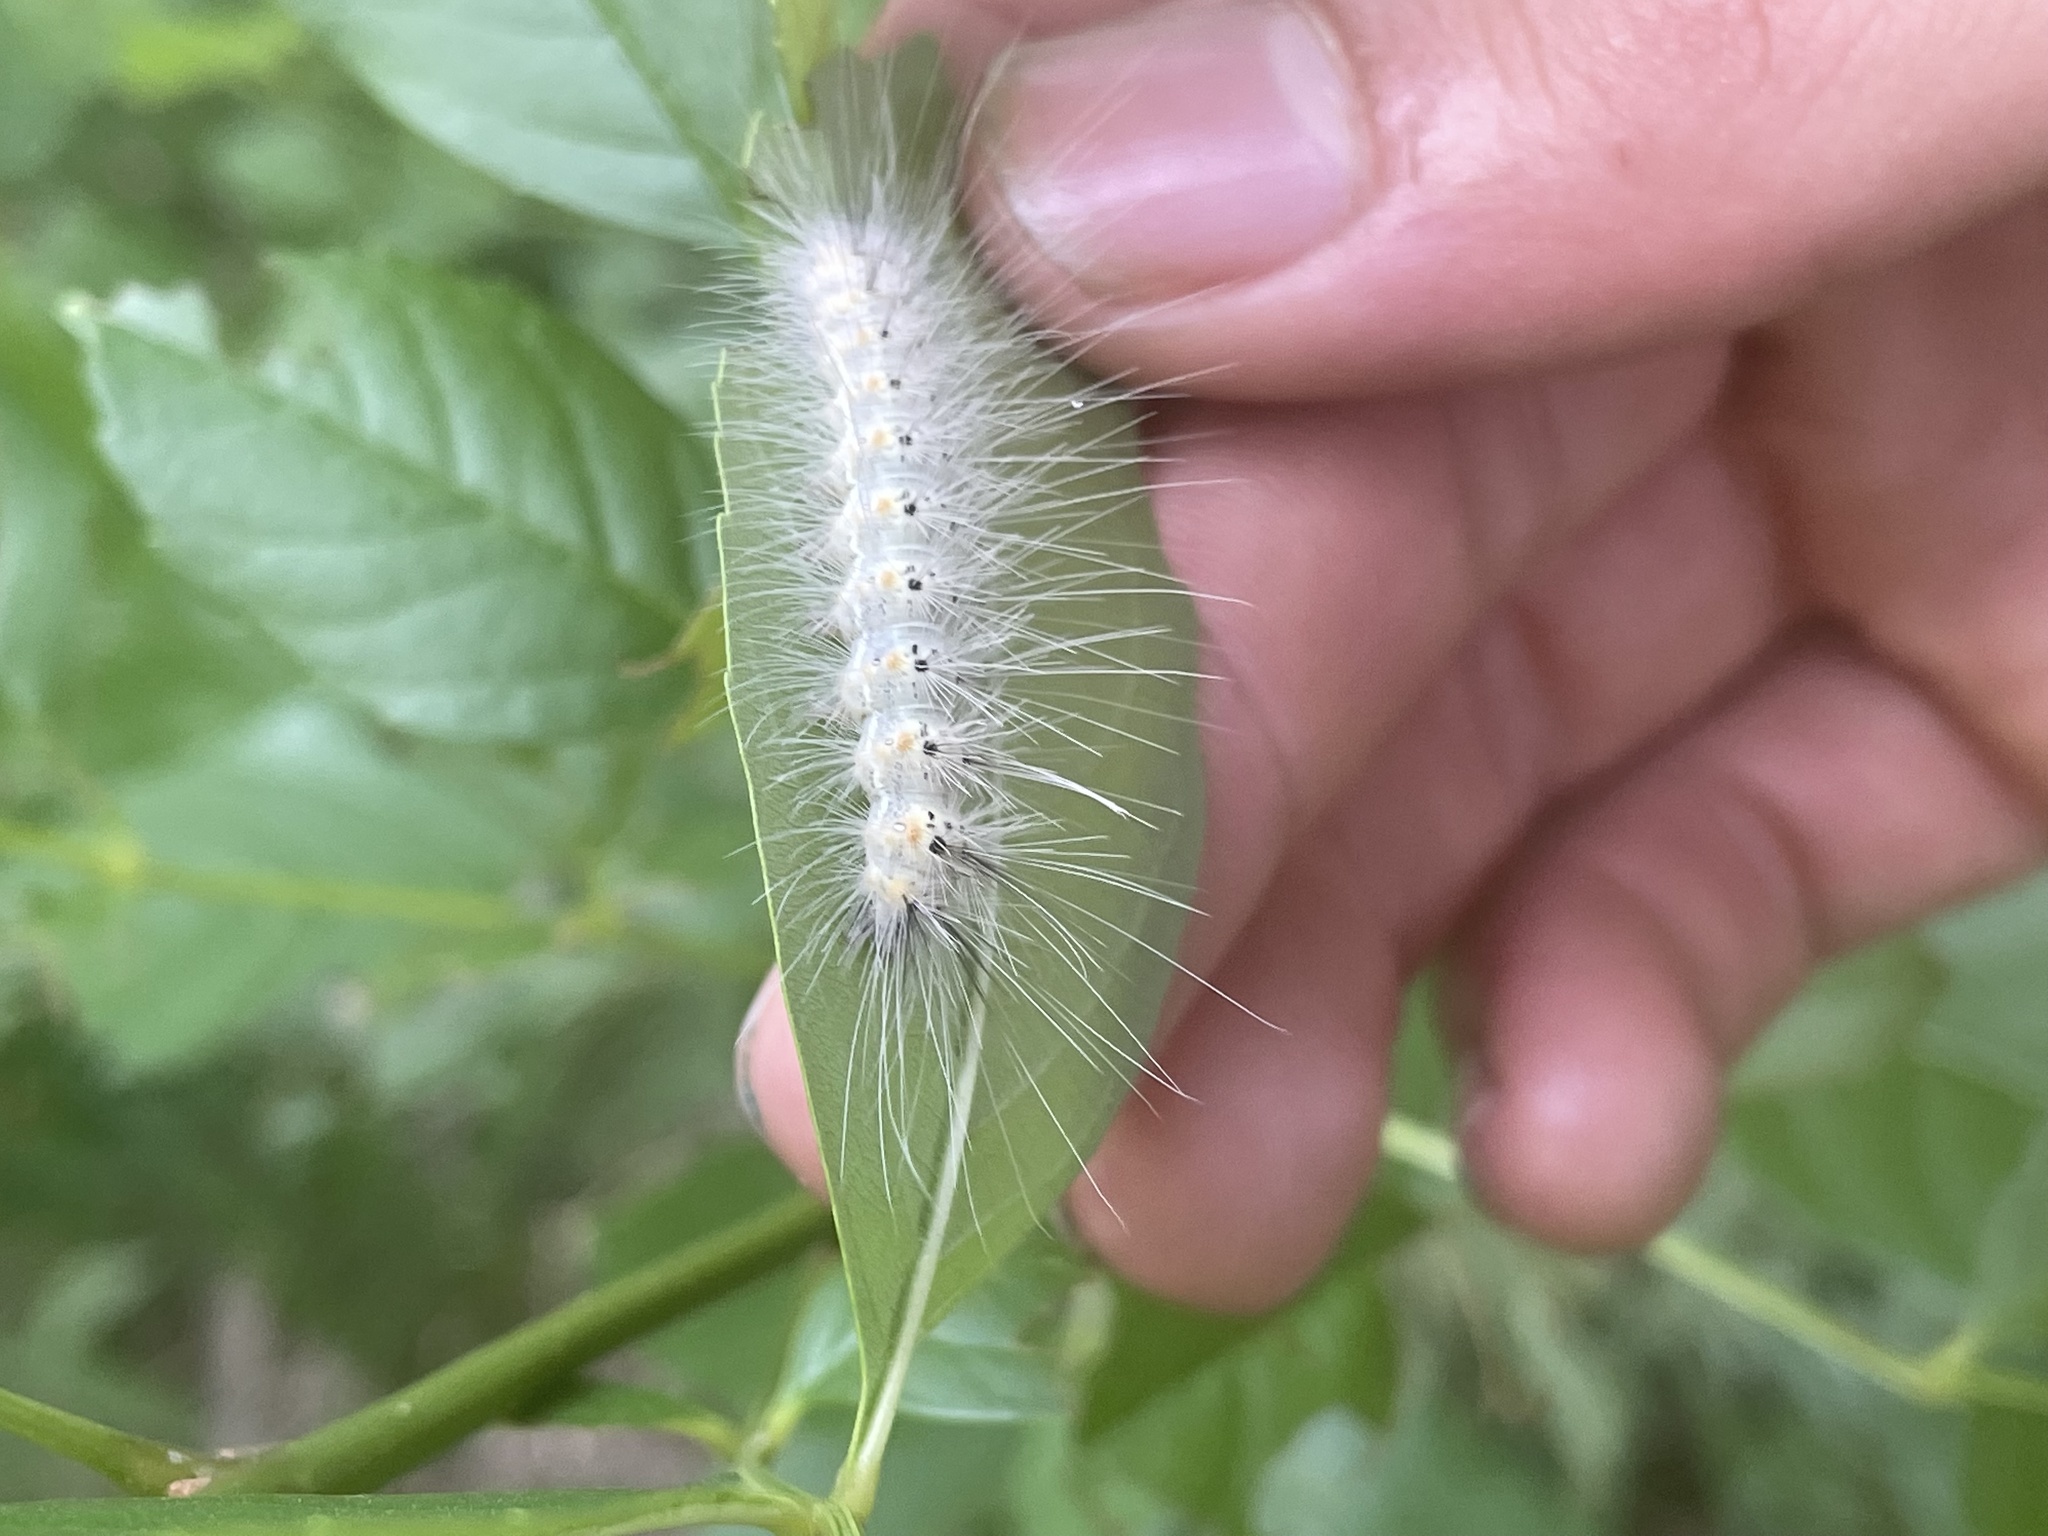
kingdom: Animalia
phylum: Arthropoda
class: Insecta
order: Lepidoptera
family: Erebidae
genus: Hyphantria
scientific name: Hyphantria cunea
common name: American white moth
